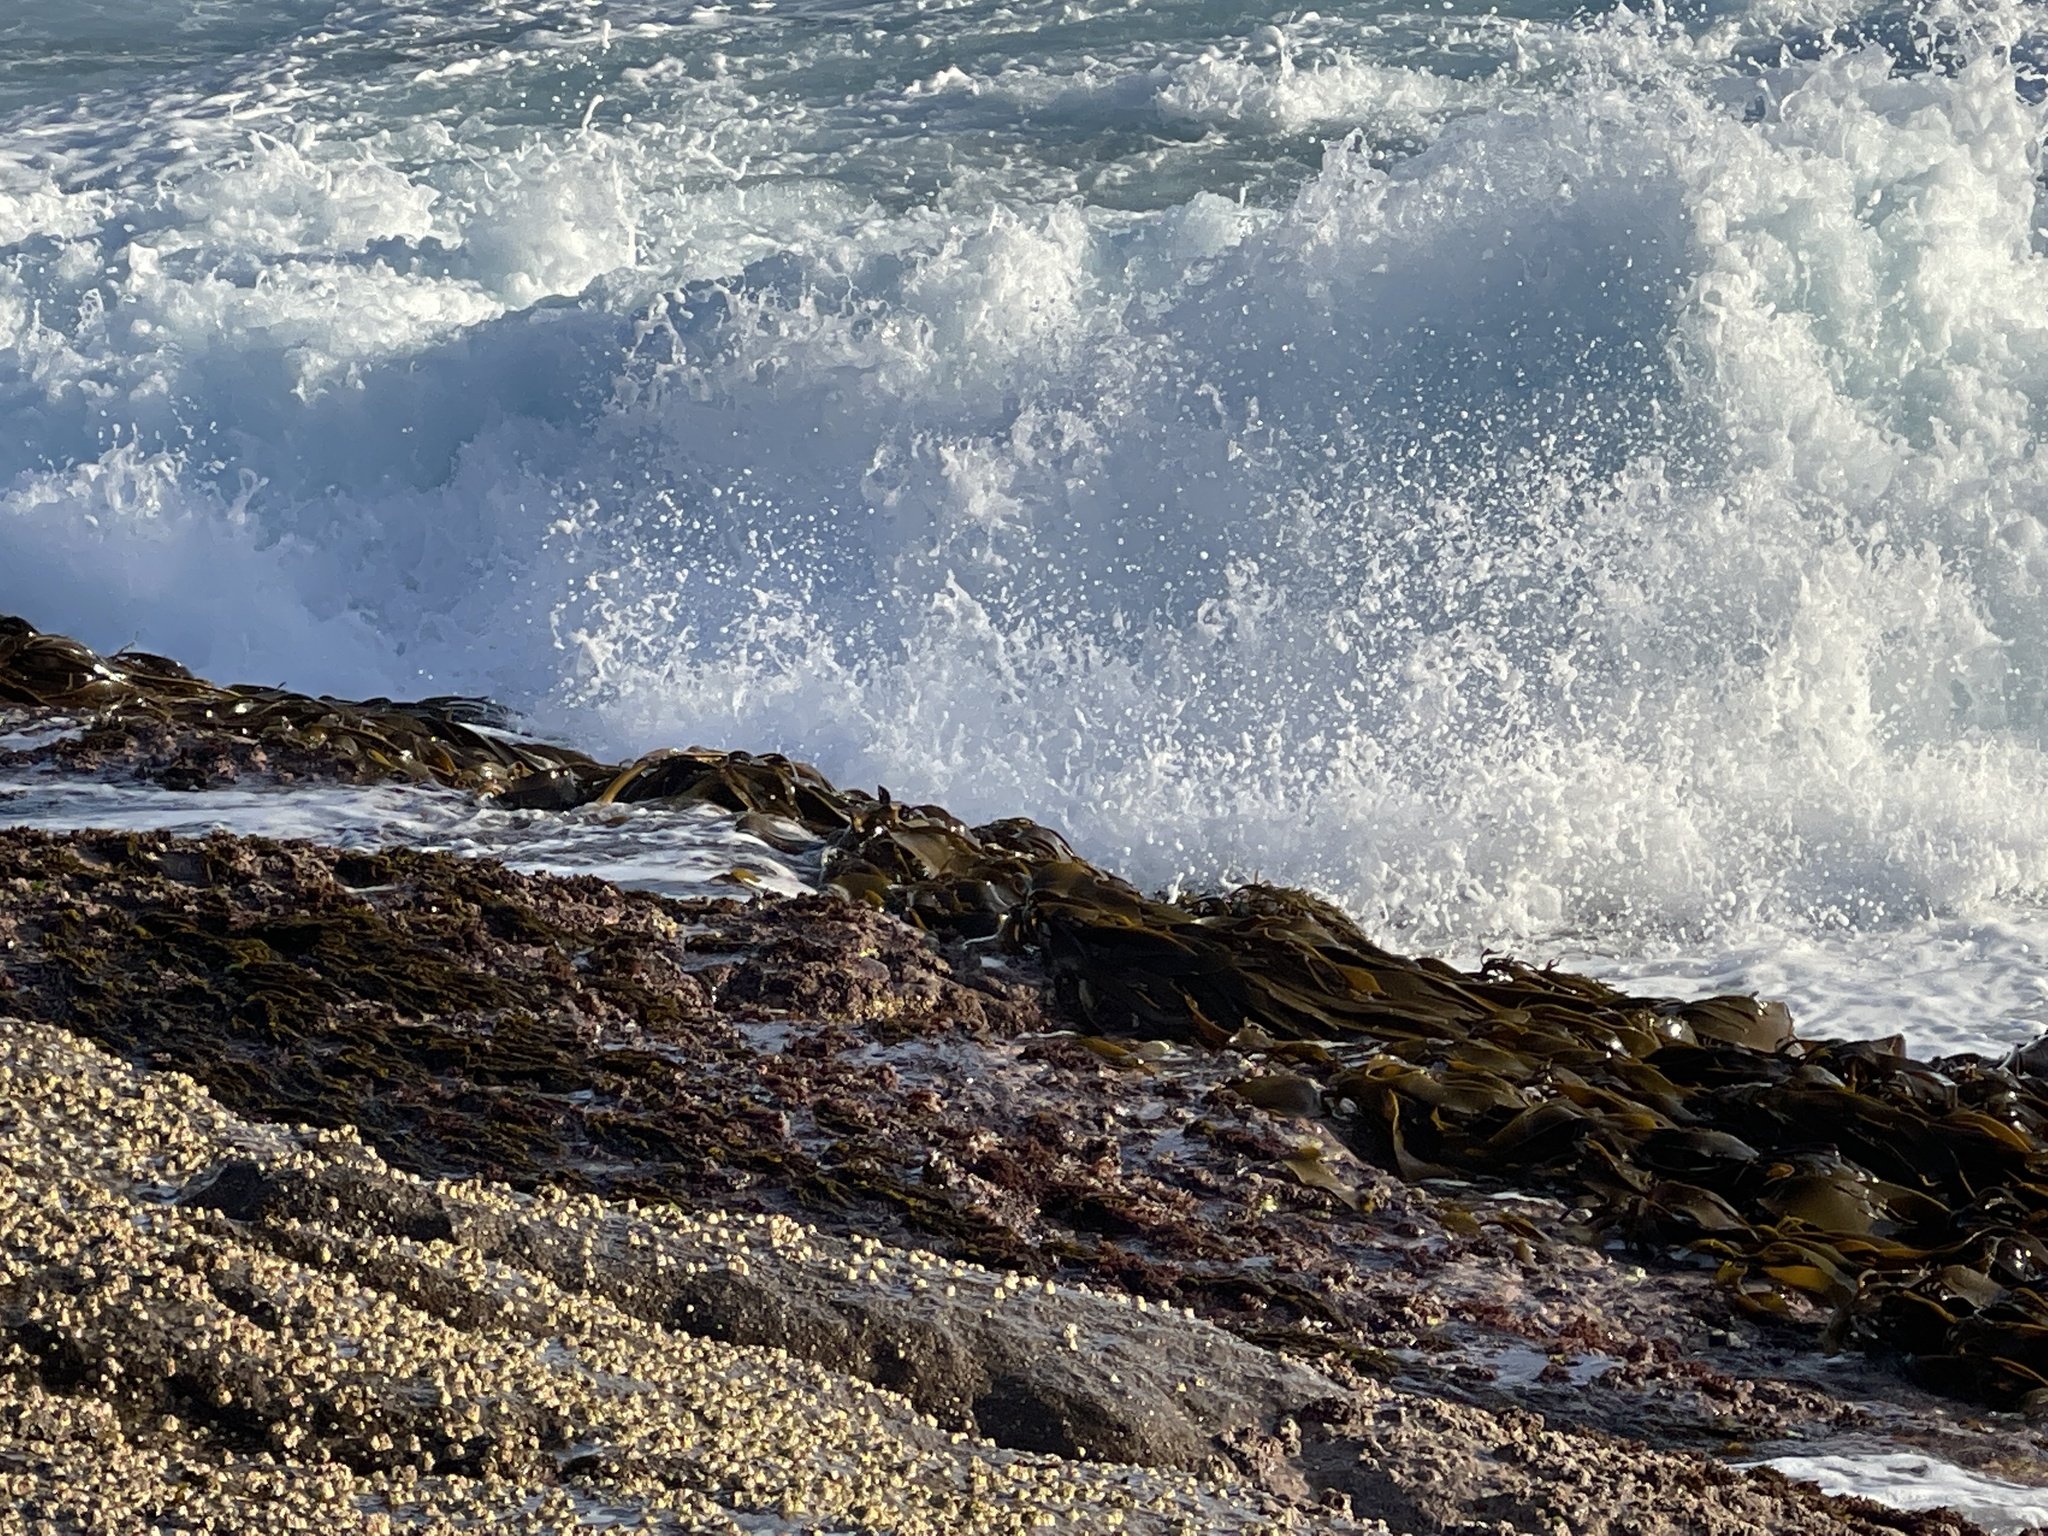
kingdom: Chromista
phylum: Ochrophyta
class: Phaeophyceae
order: Fucales
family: Durvillaeaceae
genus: Durvillaea
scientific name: Durvillaea
